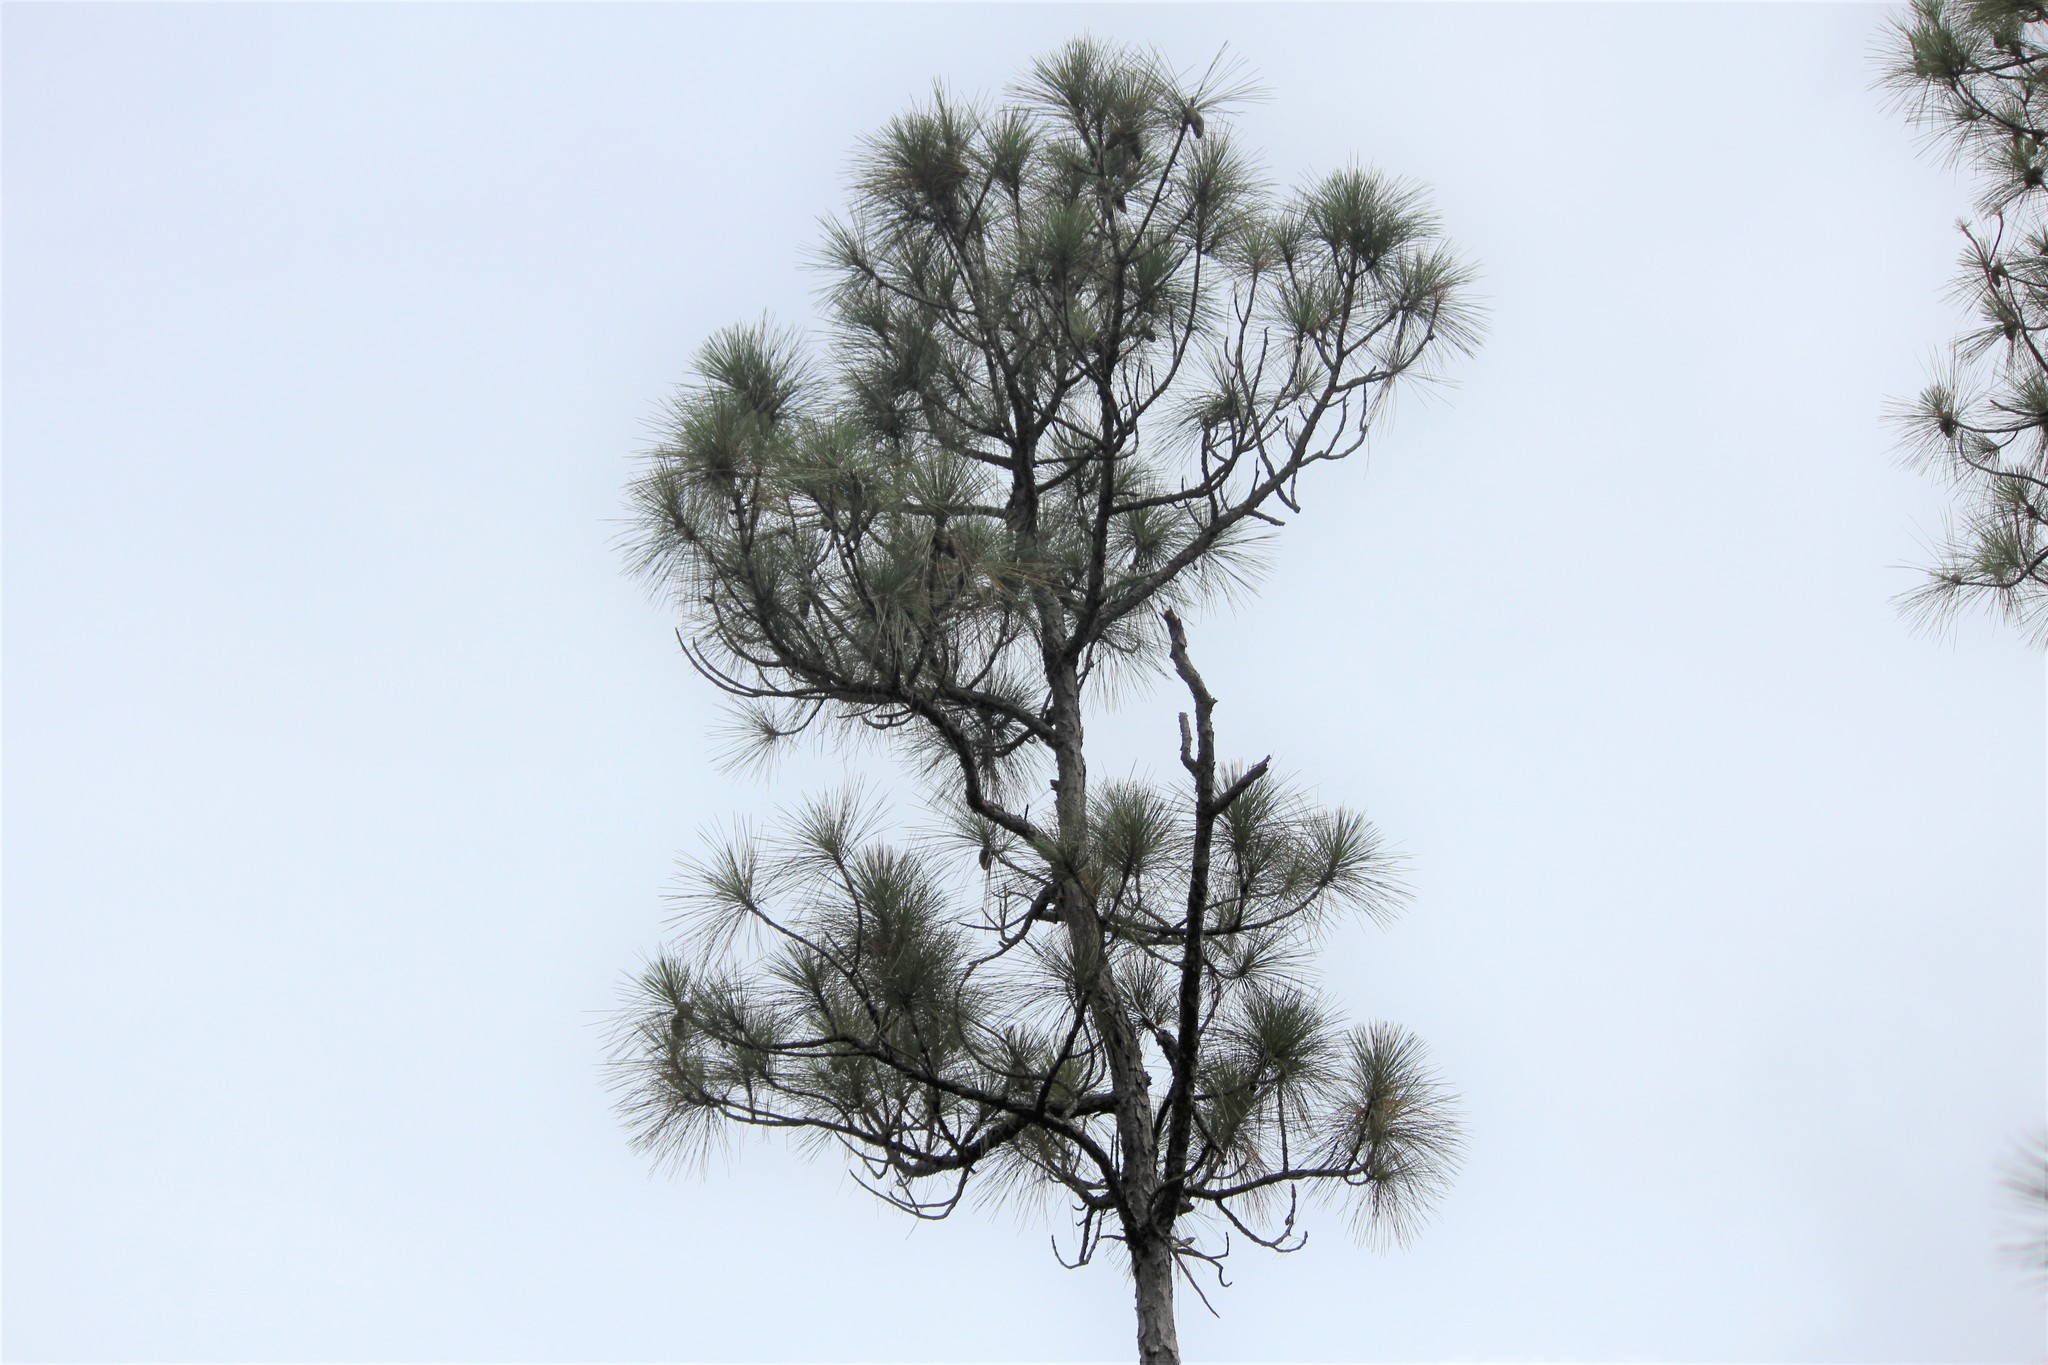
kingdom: Plantae
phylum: Tracheophyta
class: Pinopsida
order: Pinales
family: Pinaceae
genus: Pinus
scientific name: Pinus elliottii
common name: Slash pine
